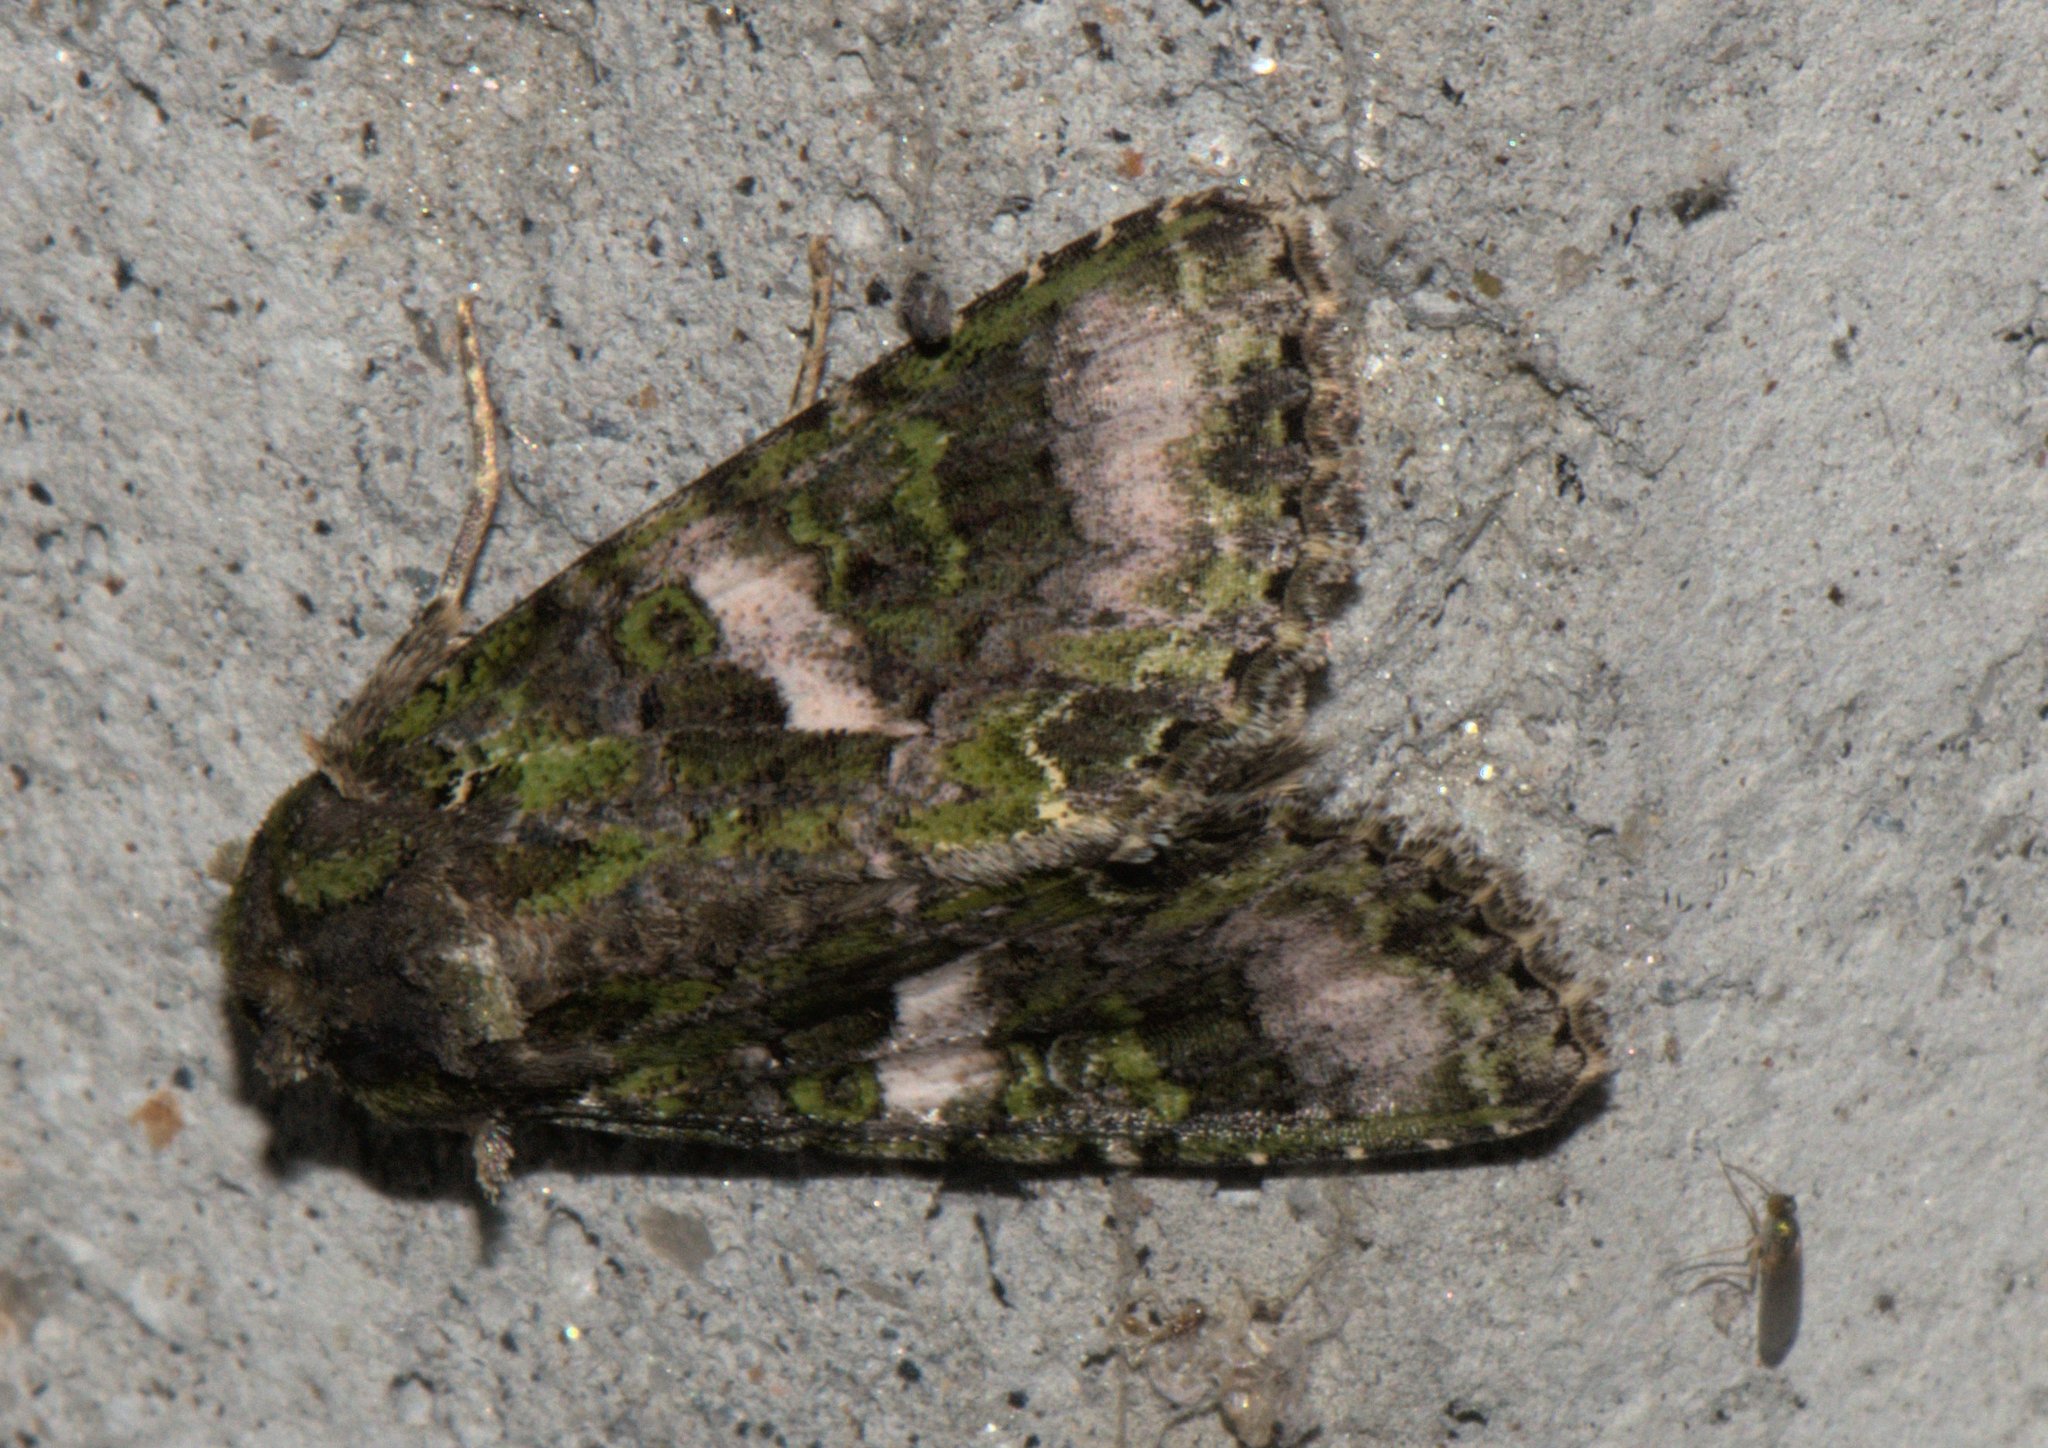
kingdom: Animalia
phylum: Arthropoda
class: Insecta
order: Lepidoptera
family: Noctuidae
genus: Trachea
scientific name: Trachea auriplena
